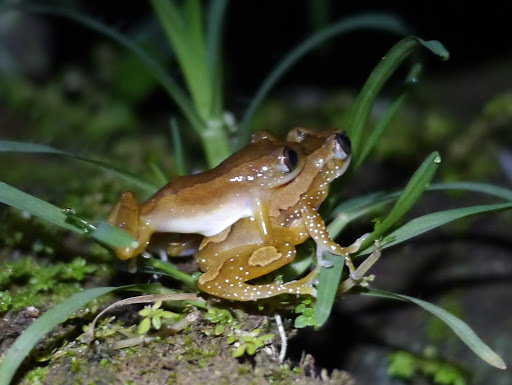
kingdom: Animalia
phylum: Chordata
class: Amphibia
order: Anura
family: Hyperoliidae
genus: Afrixalus
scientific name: Afrixalus paradorsalis
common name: Foulassi banana frog
